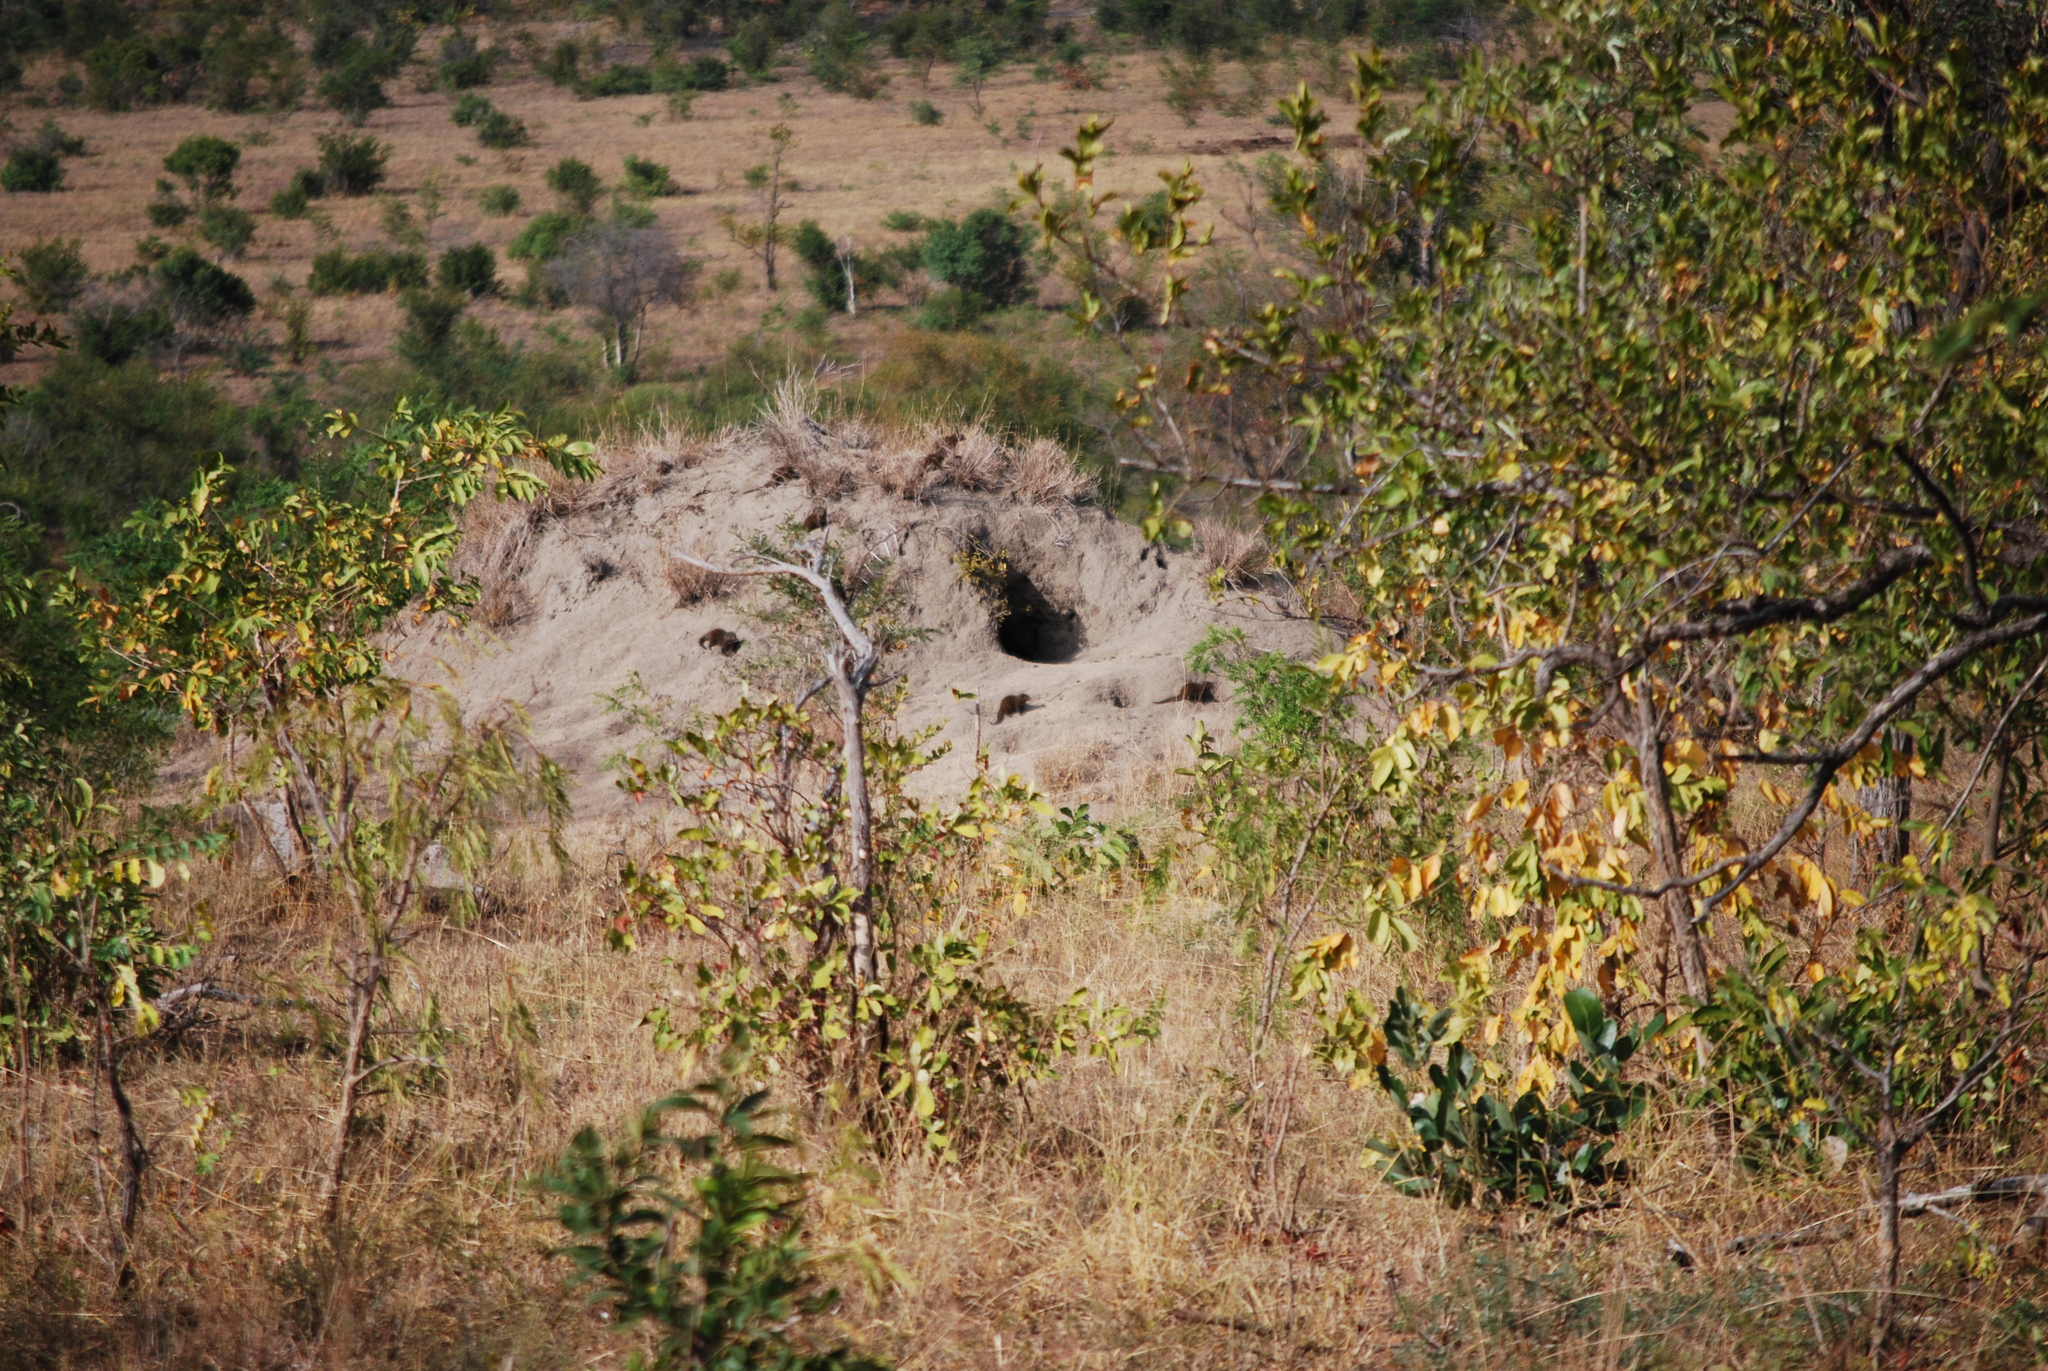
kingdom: Animalia
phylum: Chordata
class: Mammalia
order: Carnivora
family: Herpestidae
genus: Helogale
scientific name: Helogale parvula
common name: Common dwarf mongoose
